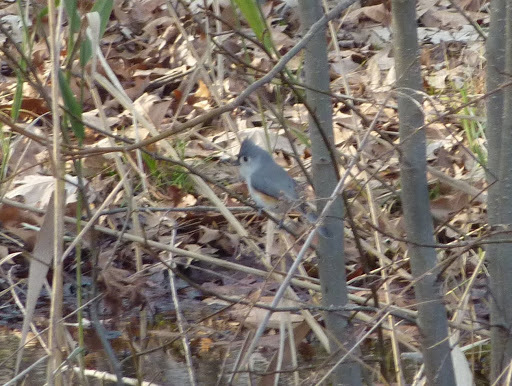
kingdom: Animalia
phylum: Chordata
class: Aves
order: Passeriformes
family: Paridae
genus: Baeolophus
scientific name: Baeolophus bicolor
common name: Tufted titmouse
